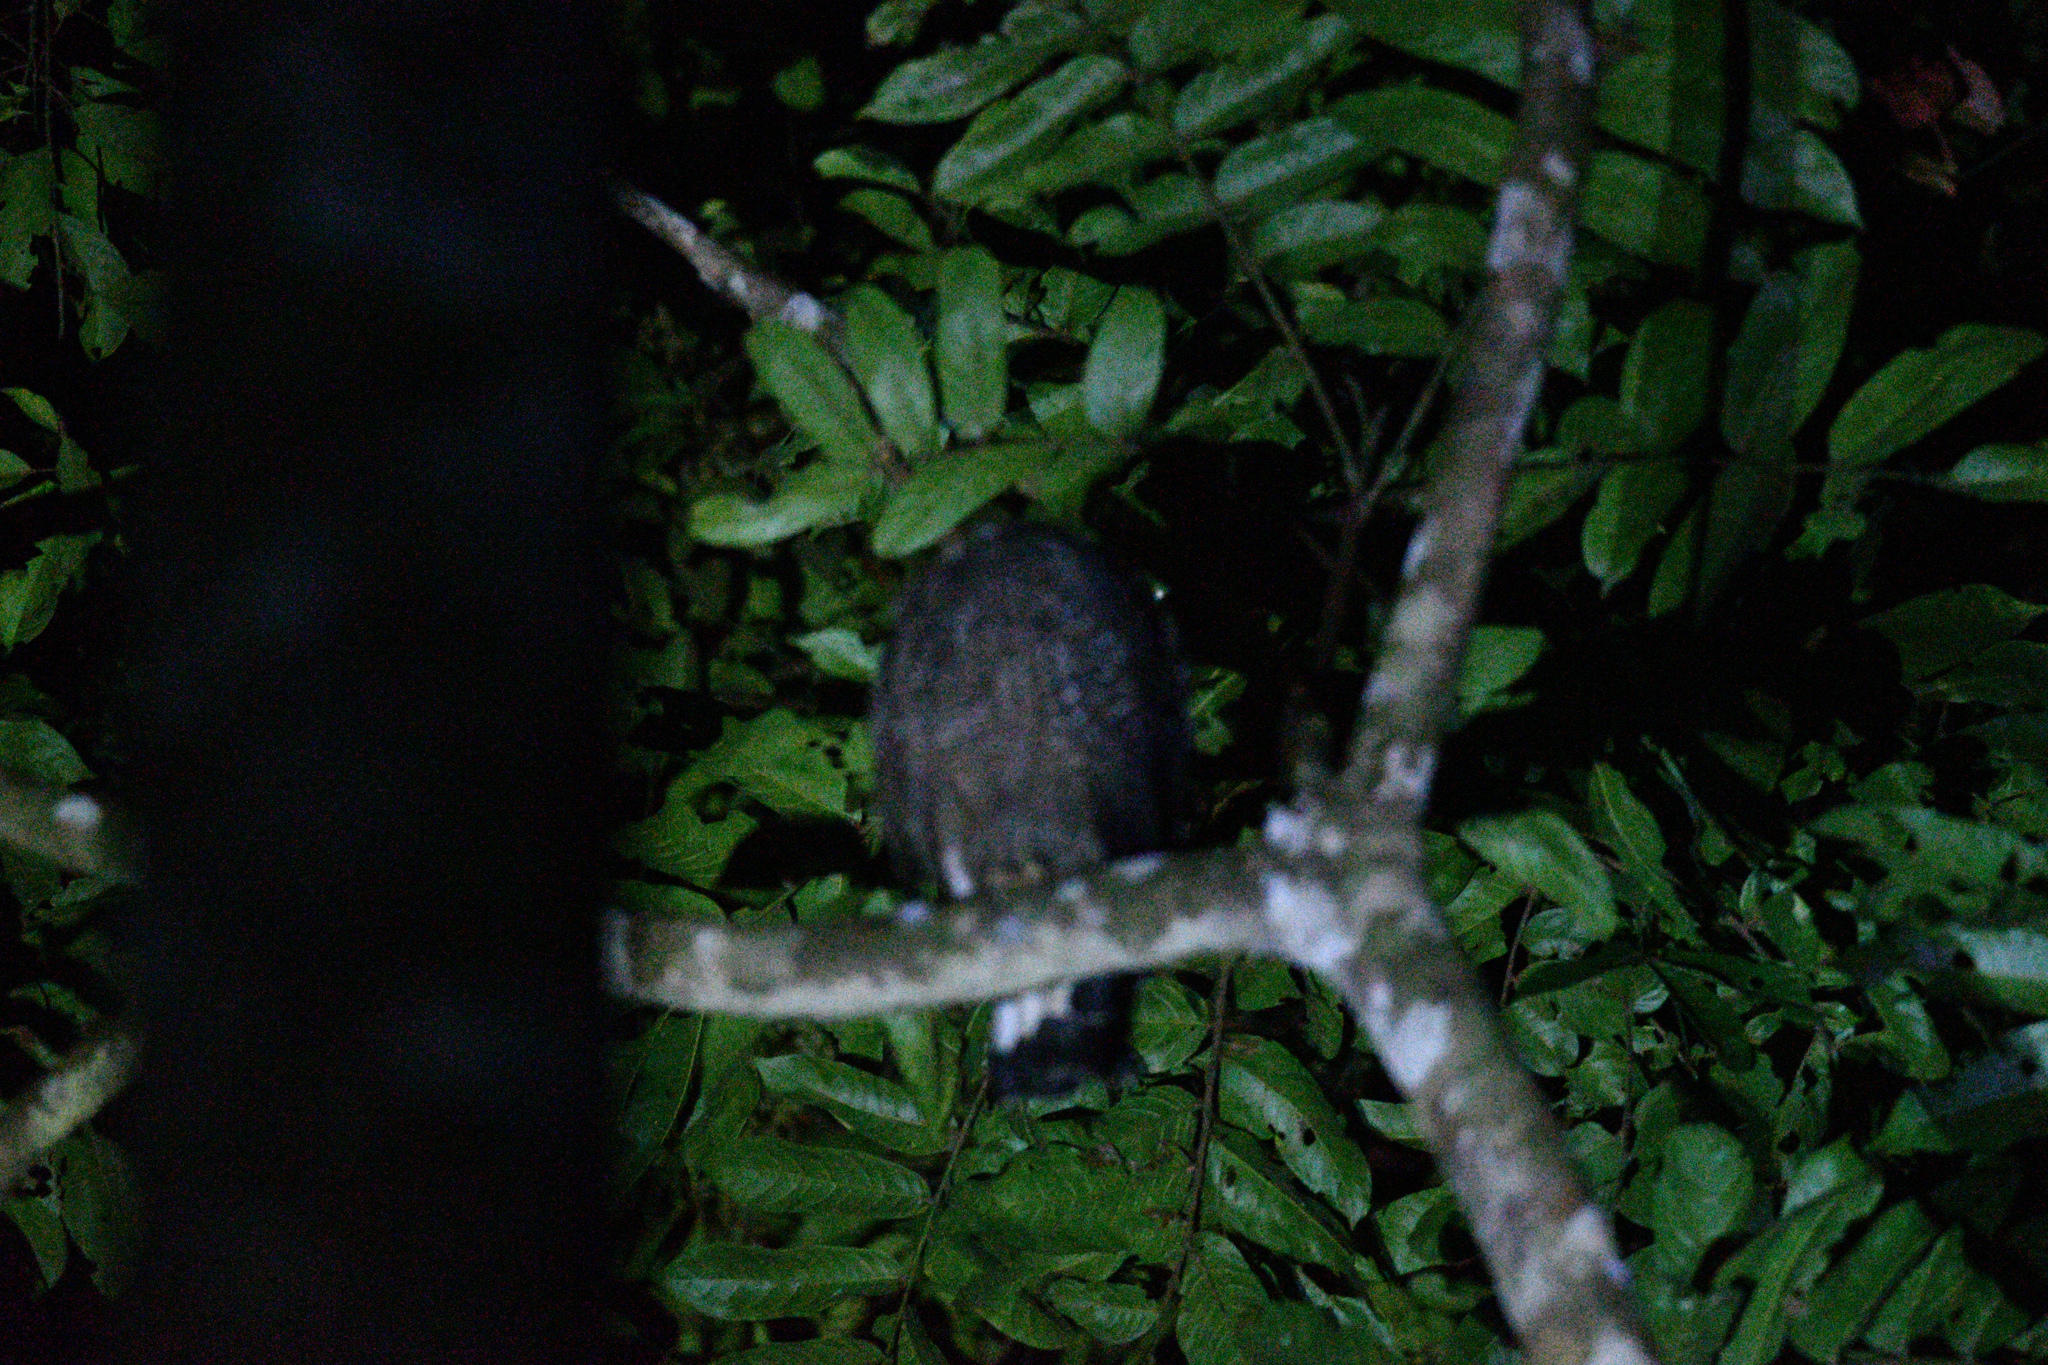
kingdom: Animalia
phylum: Chordata
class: Aves
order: Accipitriformes
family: Accipitridae
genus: Spilornis
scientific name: Spilornis cheela
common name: Crested serpent eagle
